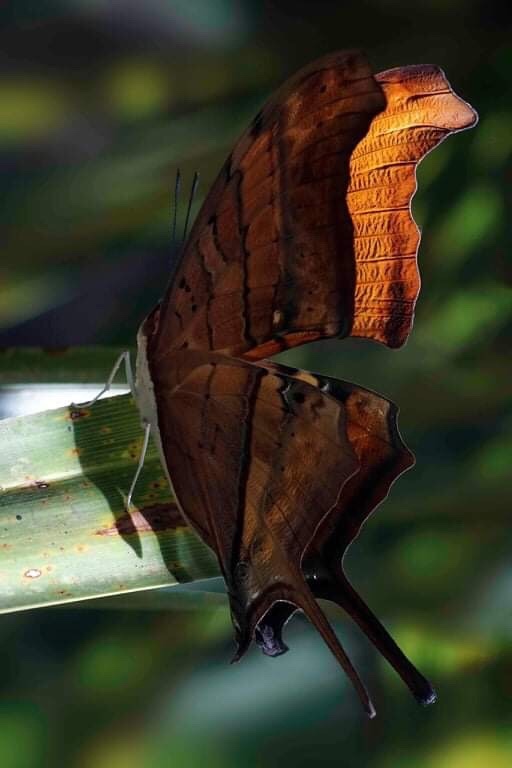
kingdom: Animalia
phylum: Arthropoda
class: Insecta
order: Lepidoptera
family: Nymphalidae
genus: Marpesia
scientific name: Marpesia petreus
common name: Red dagger wing
